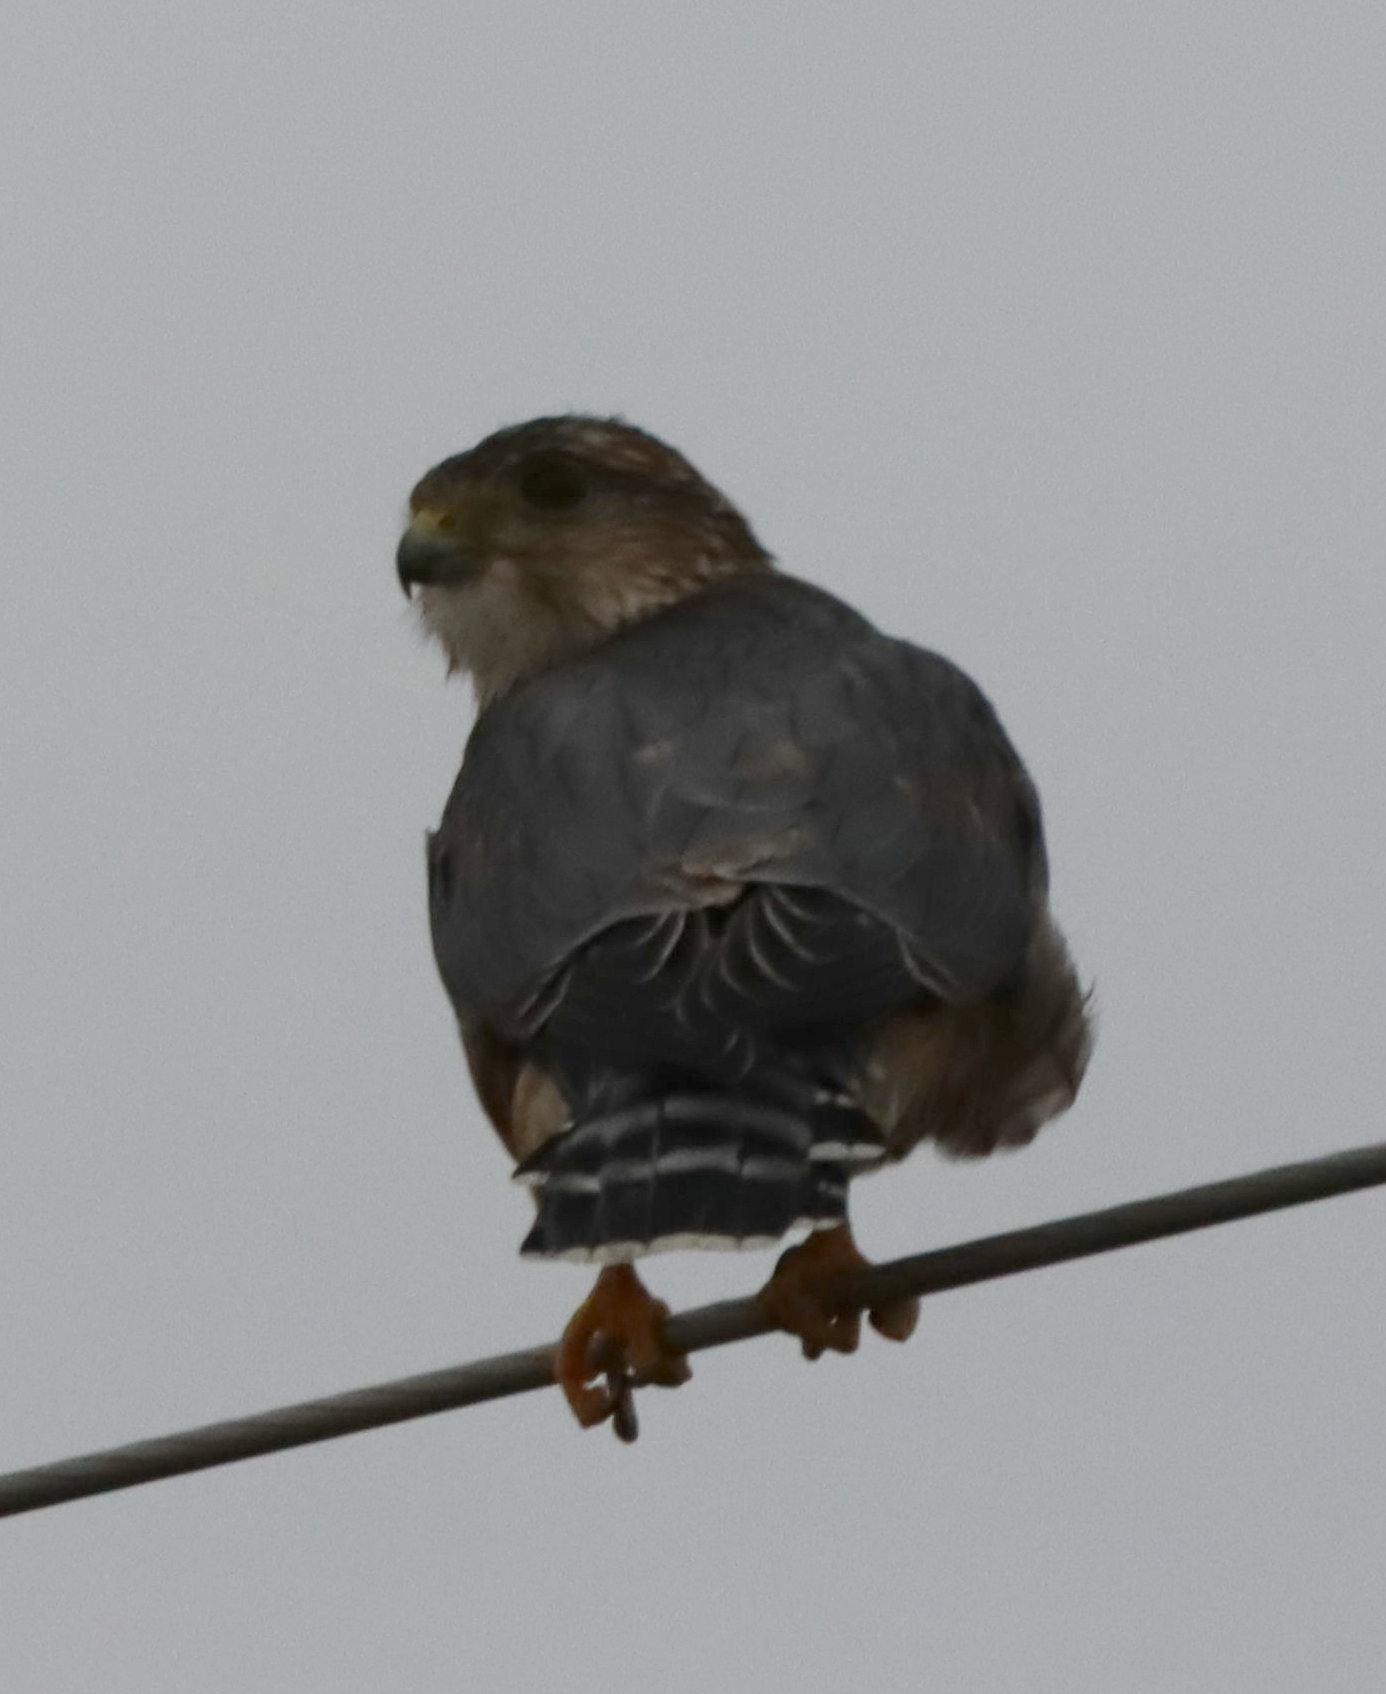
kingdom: Animalia
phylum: Chordata
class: Aves
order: Falconiformes
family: Falconidae
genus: Falco
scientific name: Falco columbarius
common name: Merlin
